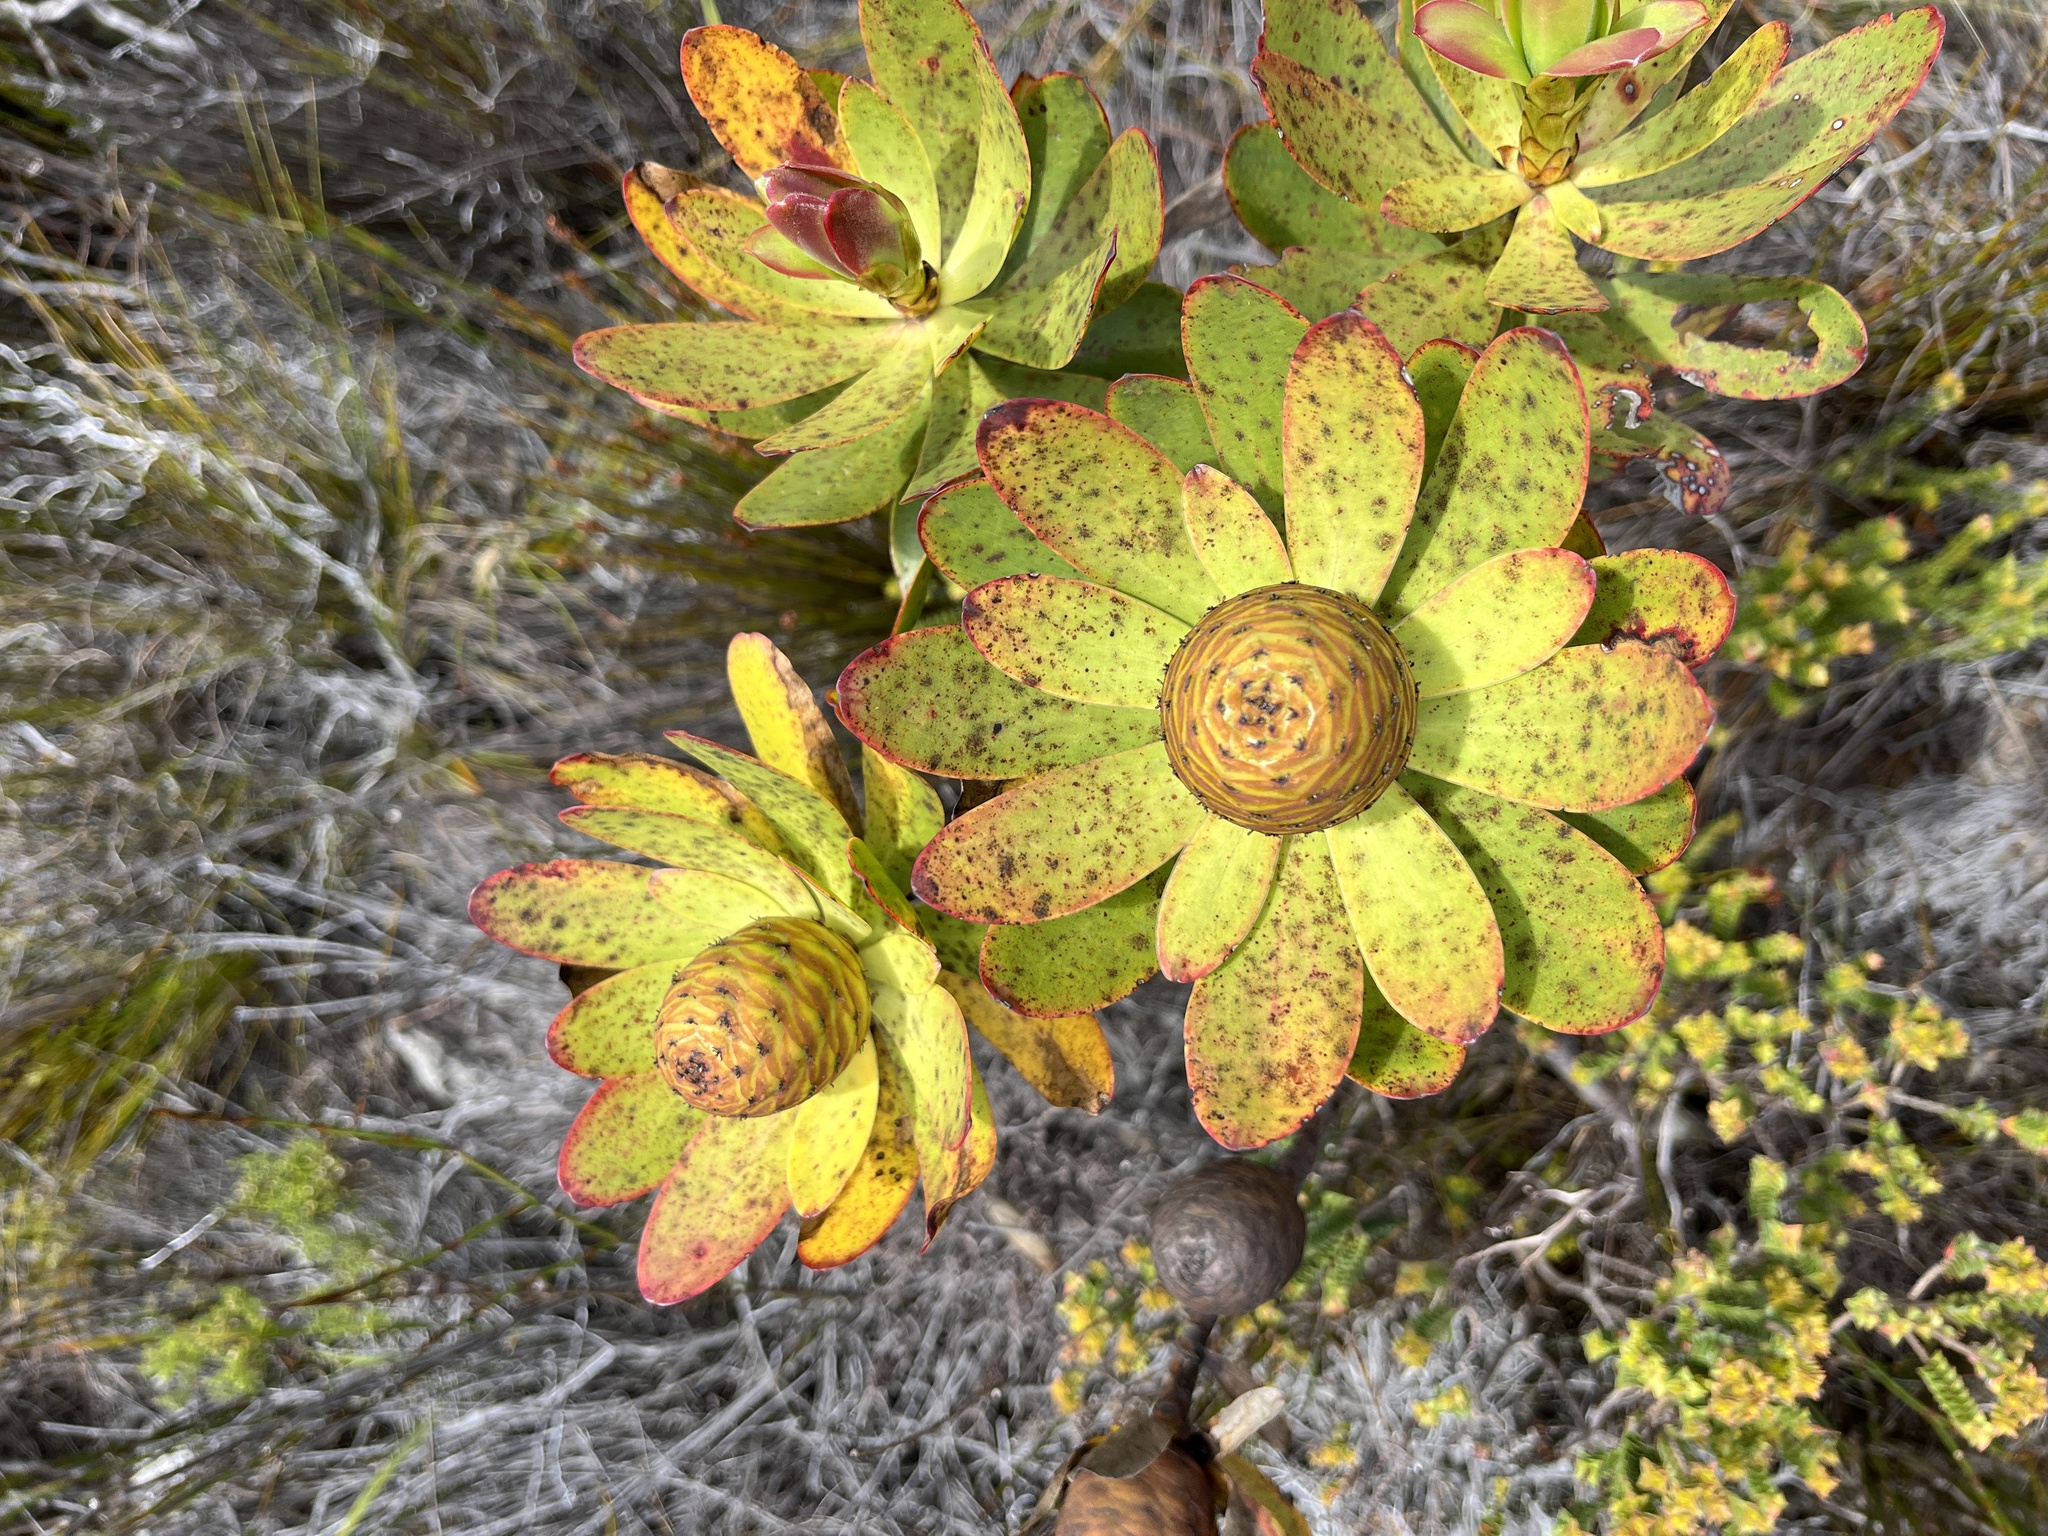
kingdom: Plantae
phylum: Tracheophyta
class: Magnoliopsida
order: Proteales
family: Proteaceae
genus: Leucadendron
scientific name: Leucadendron gandogeri
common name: Broad-leaf conebush
